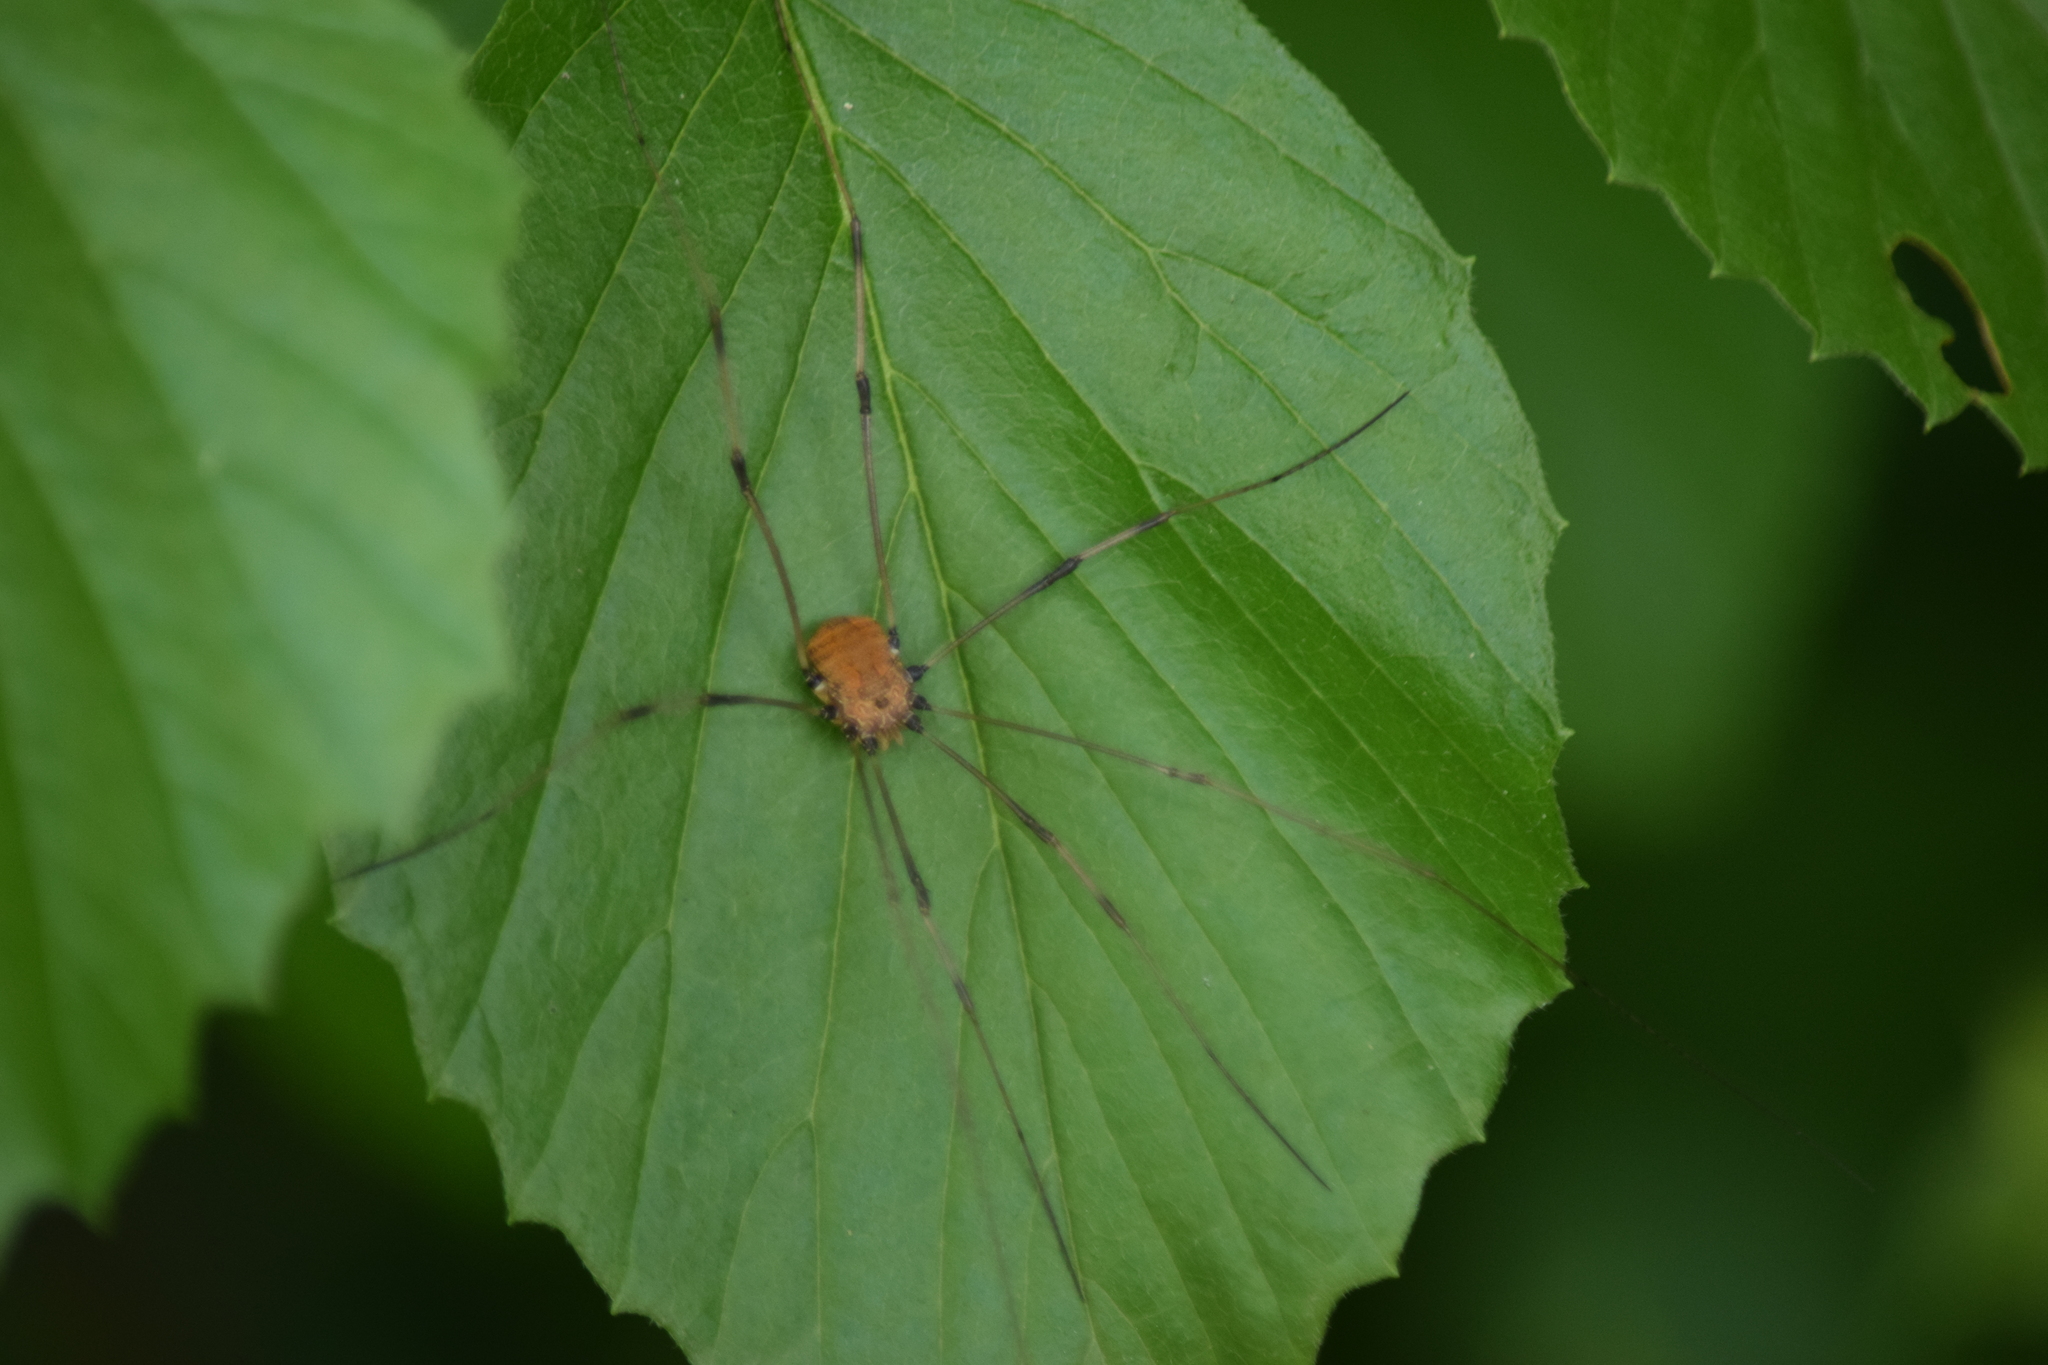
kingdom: Animalia
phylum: Arthropoda
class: Arachnida
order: Opiliones
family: Sclerosomatidae
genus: Leiobunum
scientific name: Leiobunum vittatum
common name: Eastern harvestman
